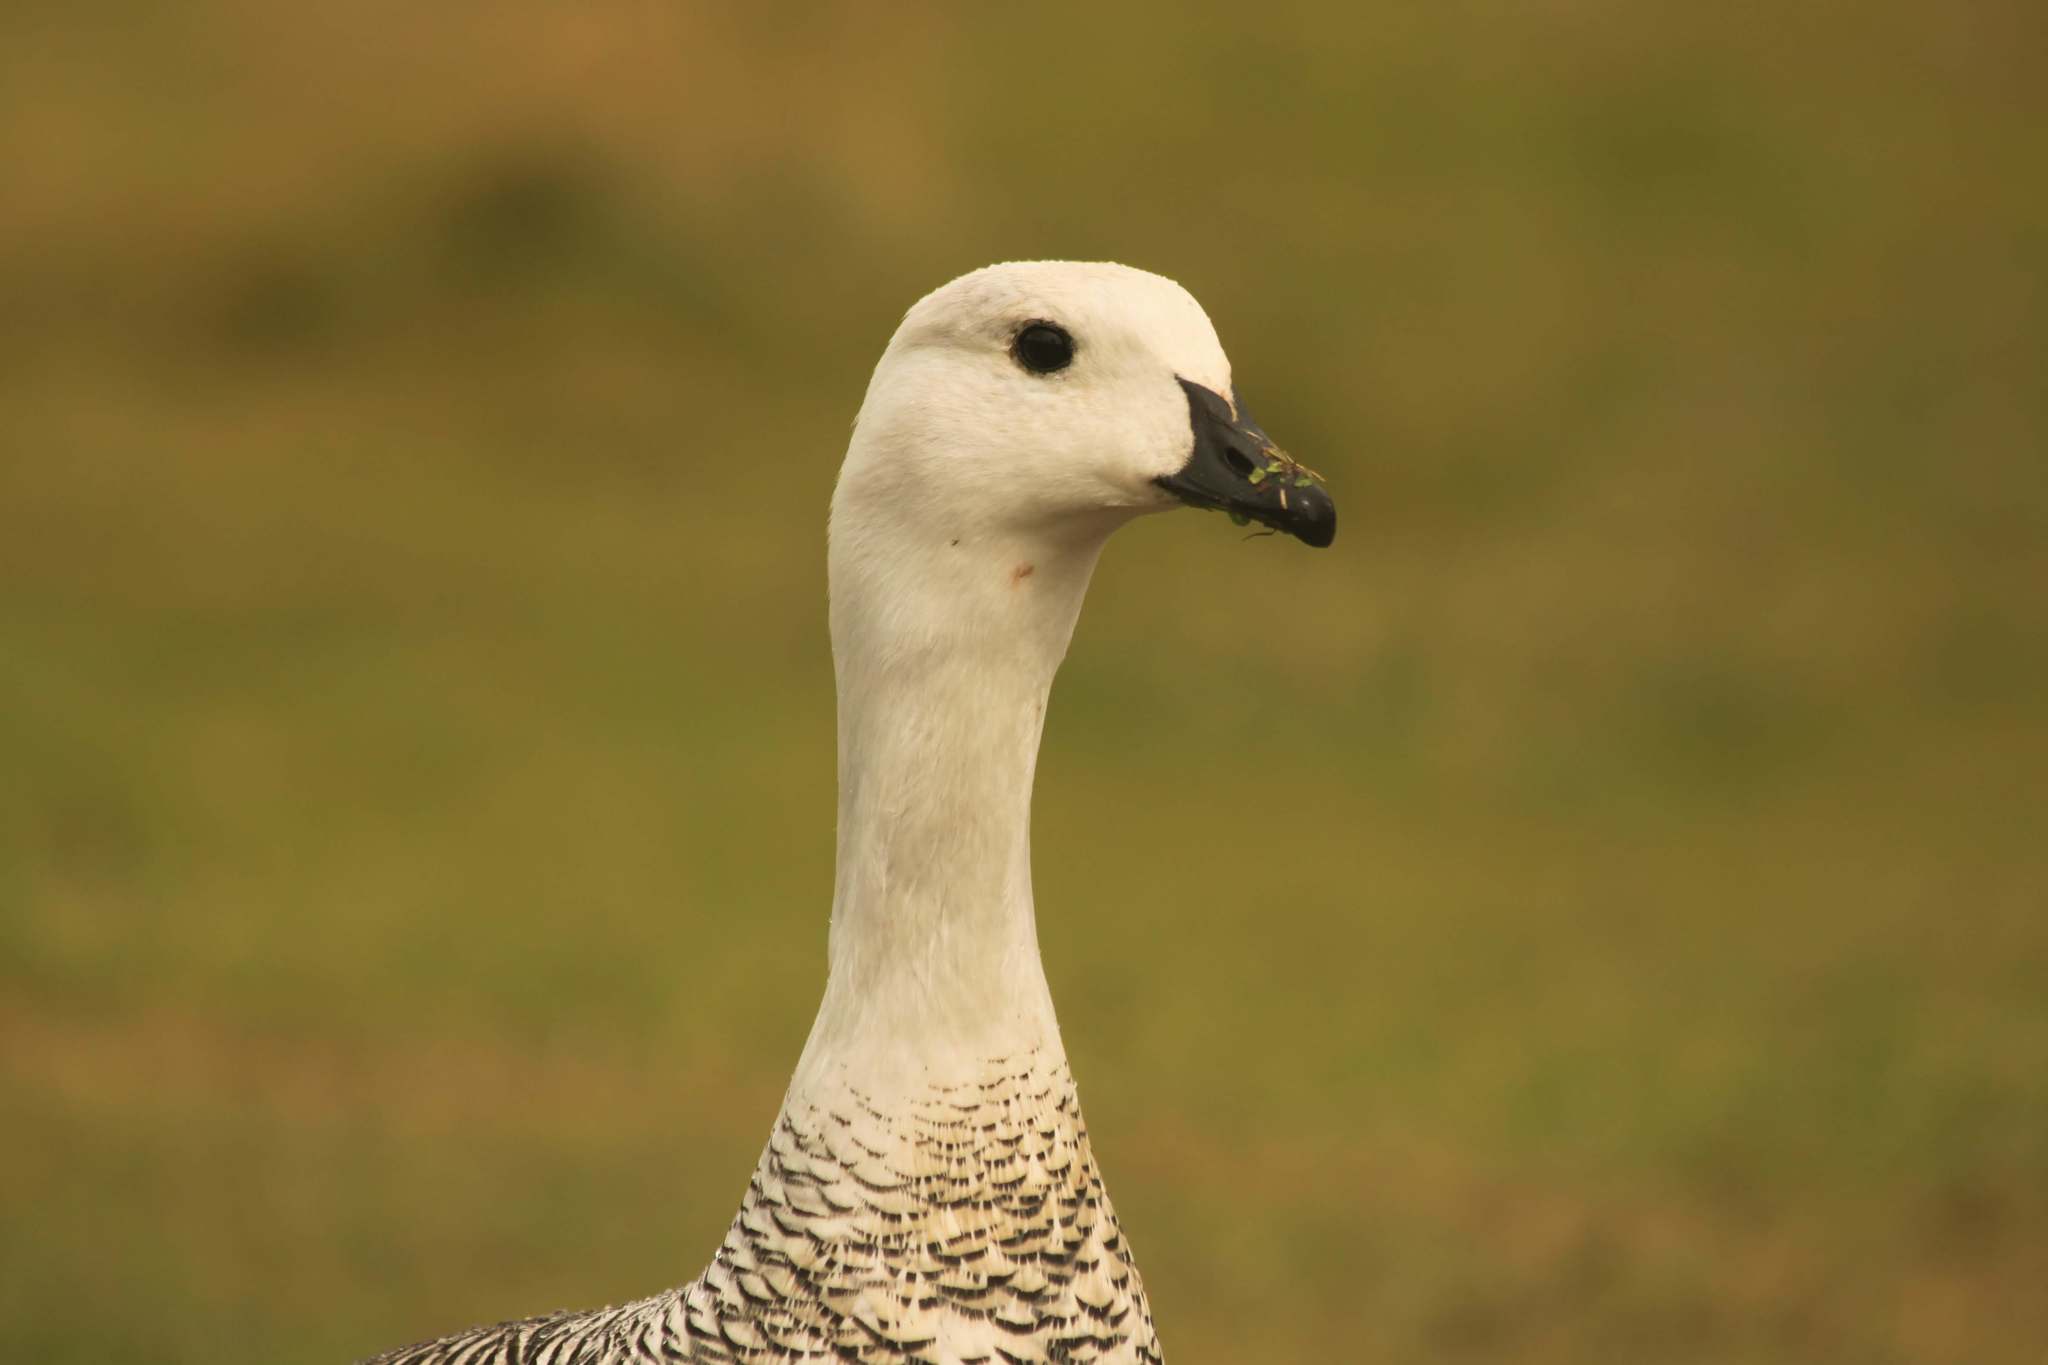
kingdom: Animalia
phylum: Chordata
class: Aves
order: Anseriformes
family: Anatidae
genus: Chloephaga
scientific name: Chloephaga picta
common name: Upland goose
